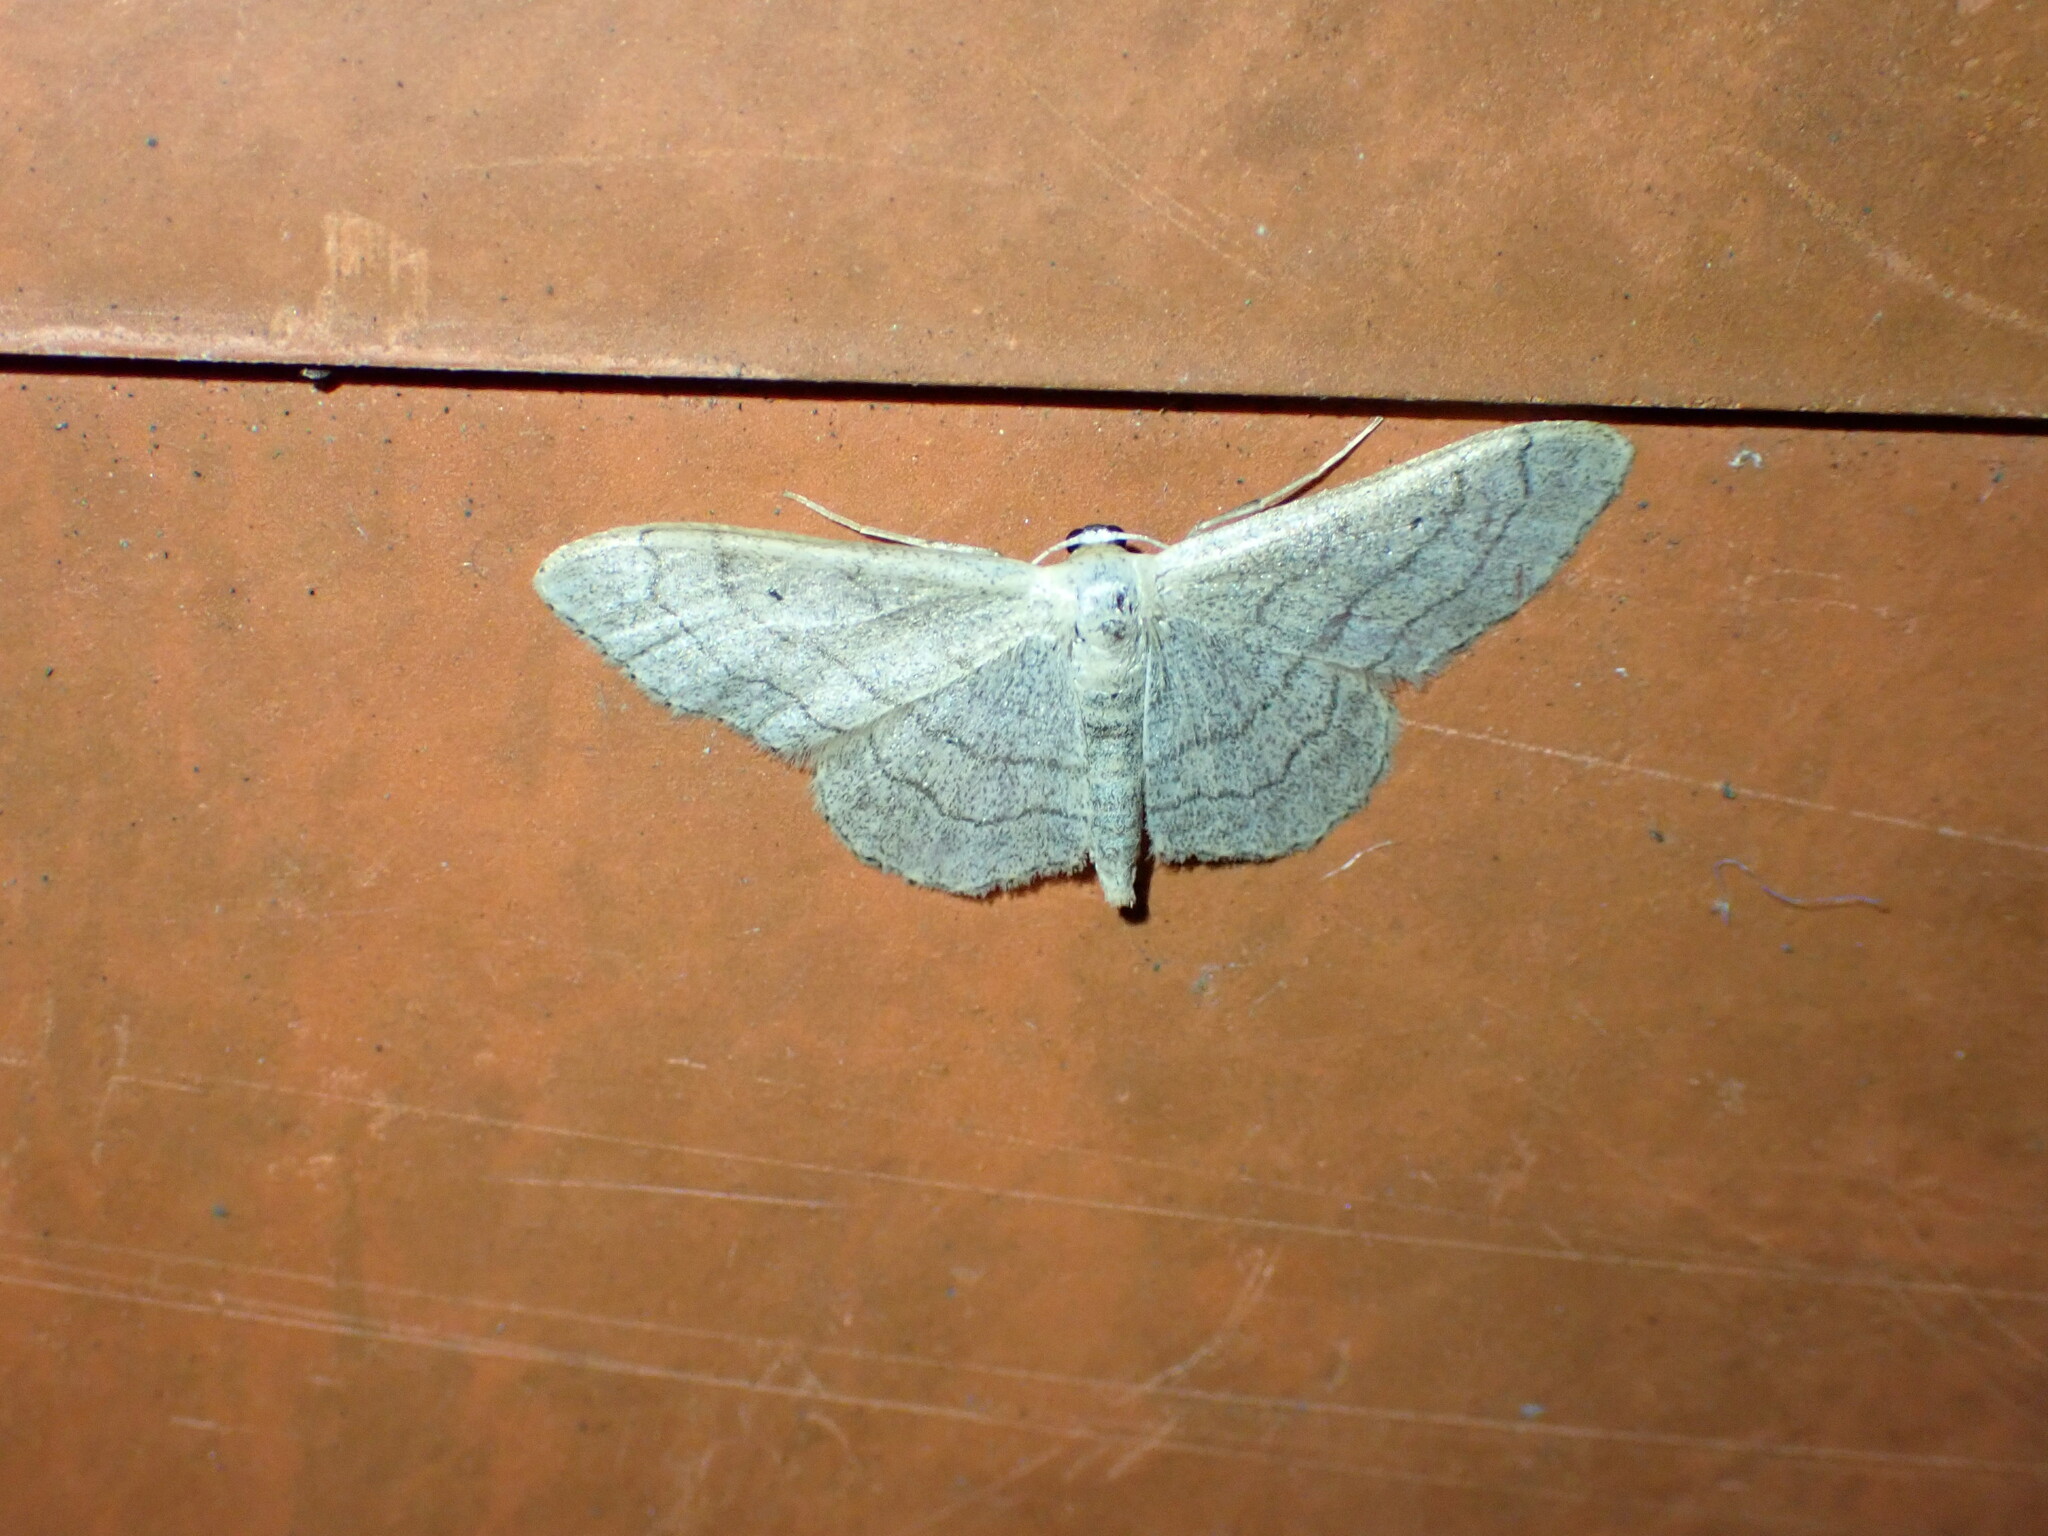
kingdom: Animalia
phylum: Arthropoda
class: Insecta
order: Lepidoptera
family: Geometridae
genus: Idaea
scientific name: Idaea aversata
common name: Riband wave
